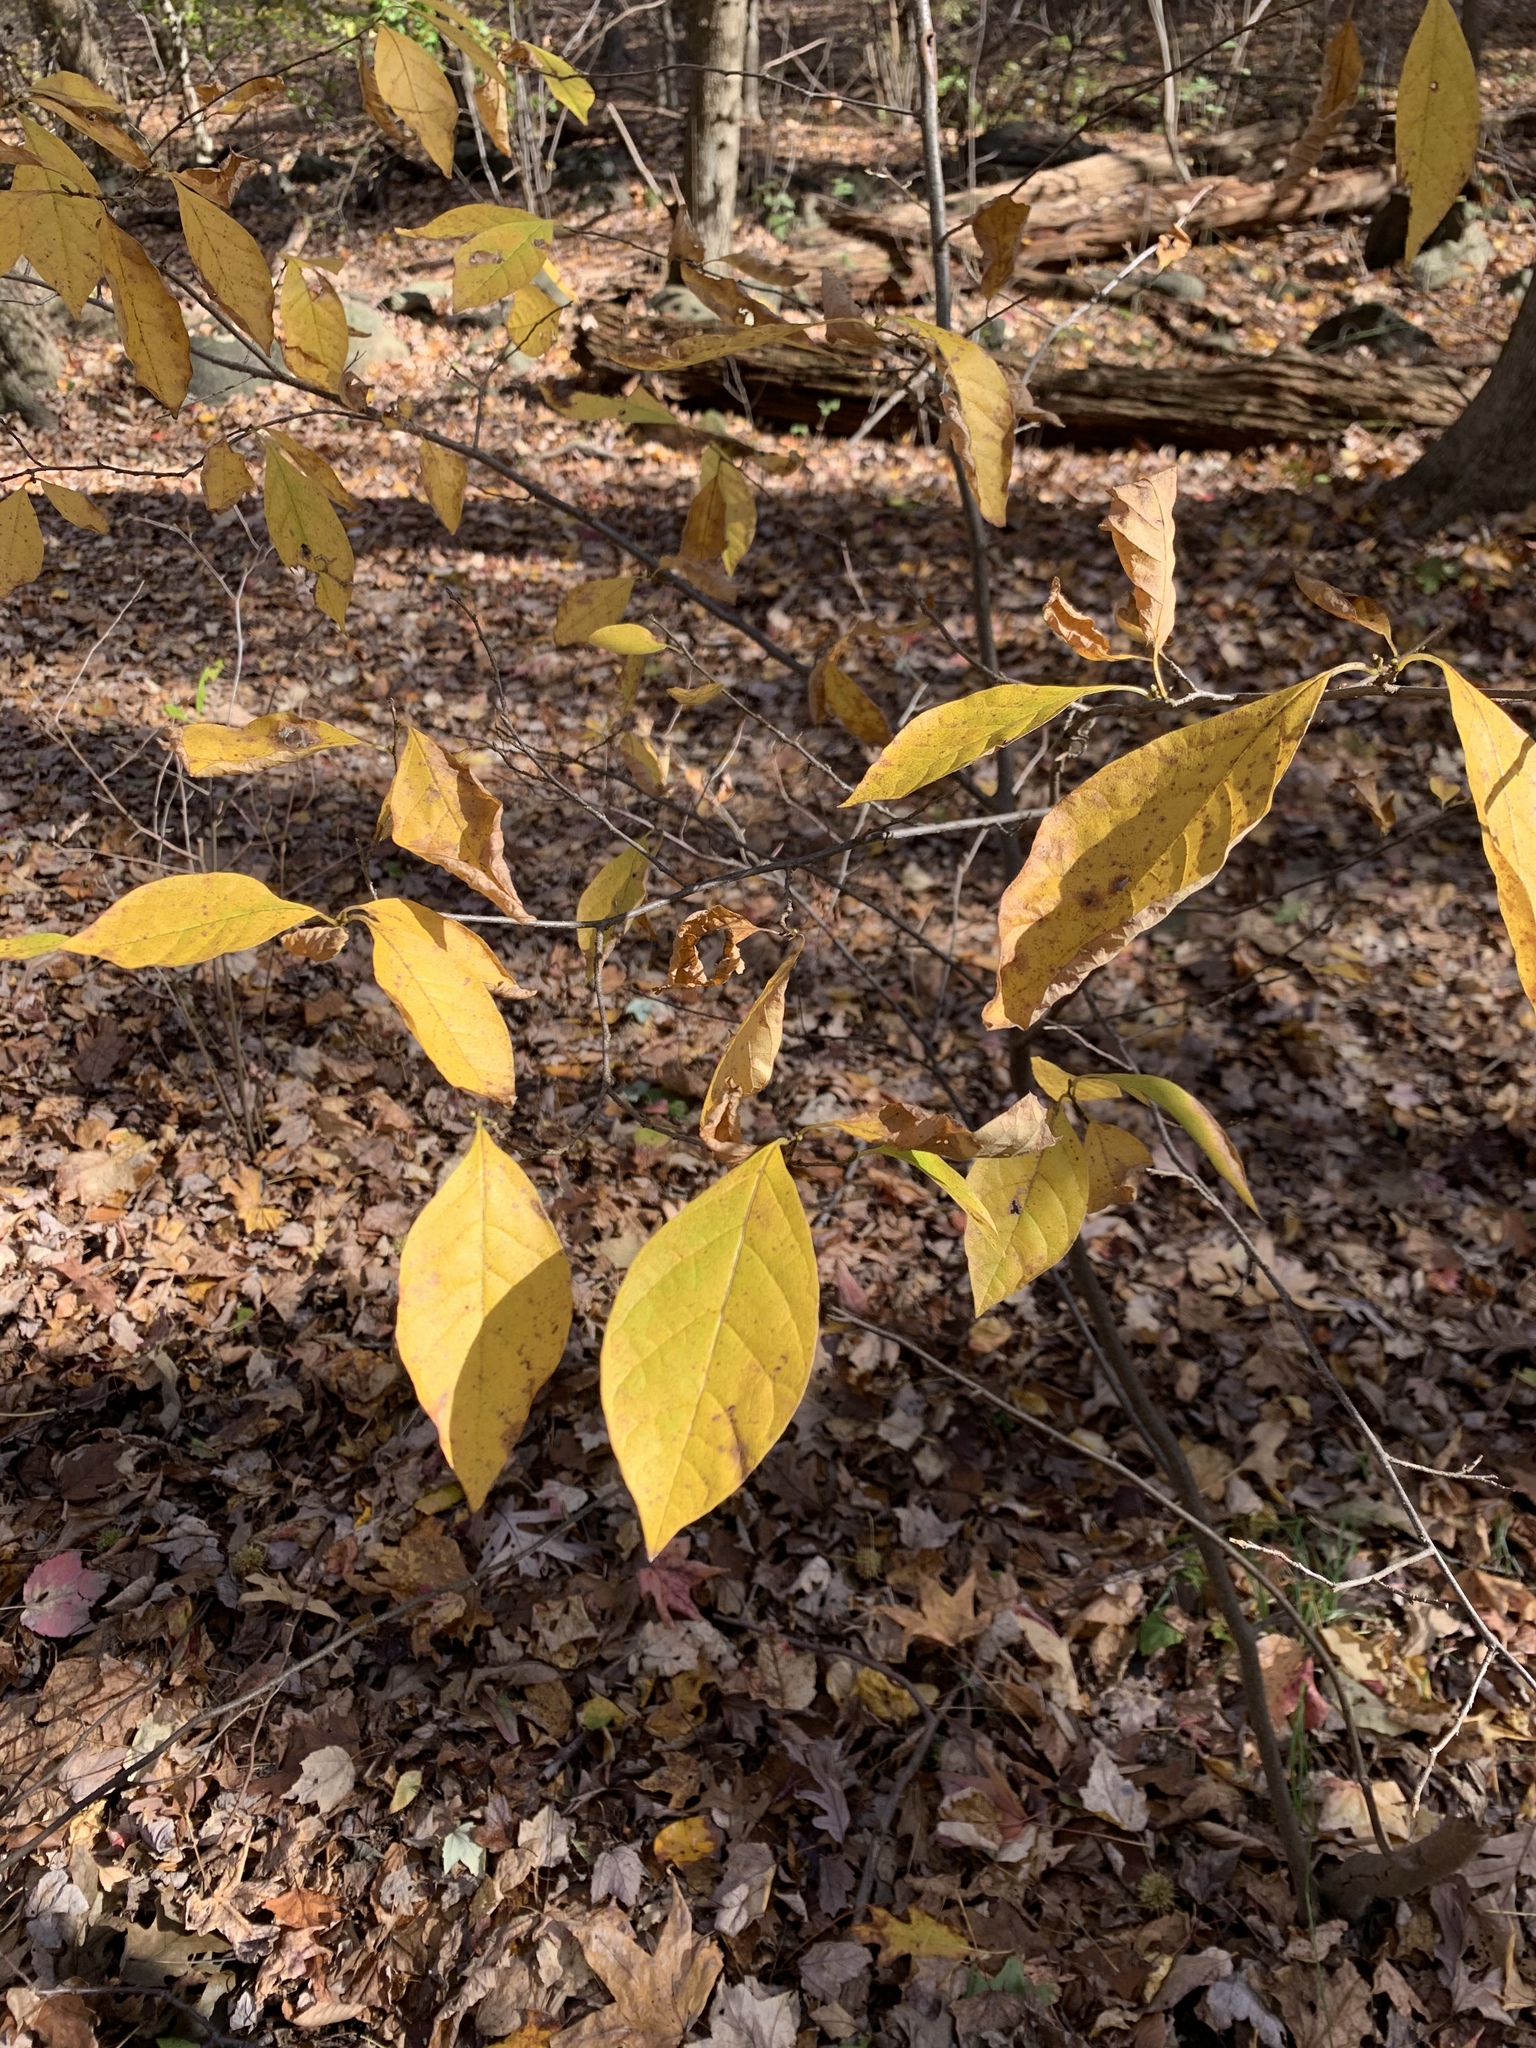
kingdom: Plantae
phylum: Tracheophyta
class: Magnoliopsida
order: Laurales
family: Lauraceae
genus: Lindera
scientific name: Lindera benzoin
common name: Spicebush
